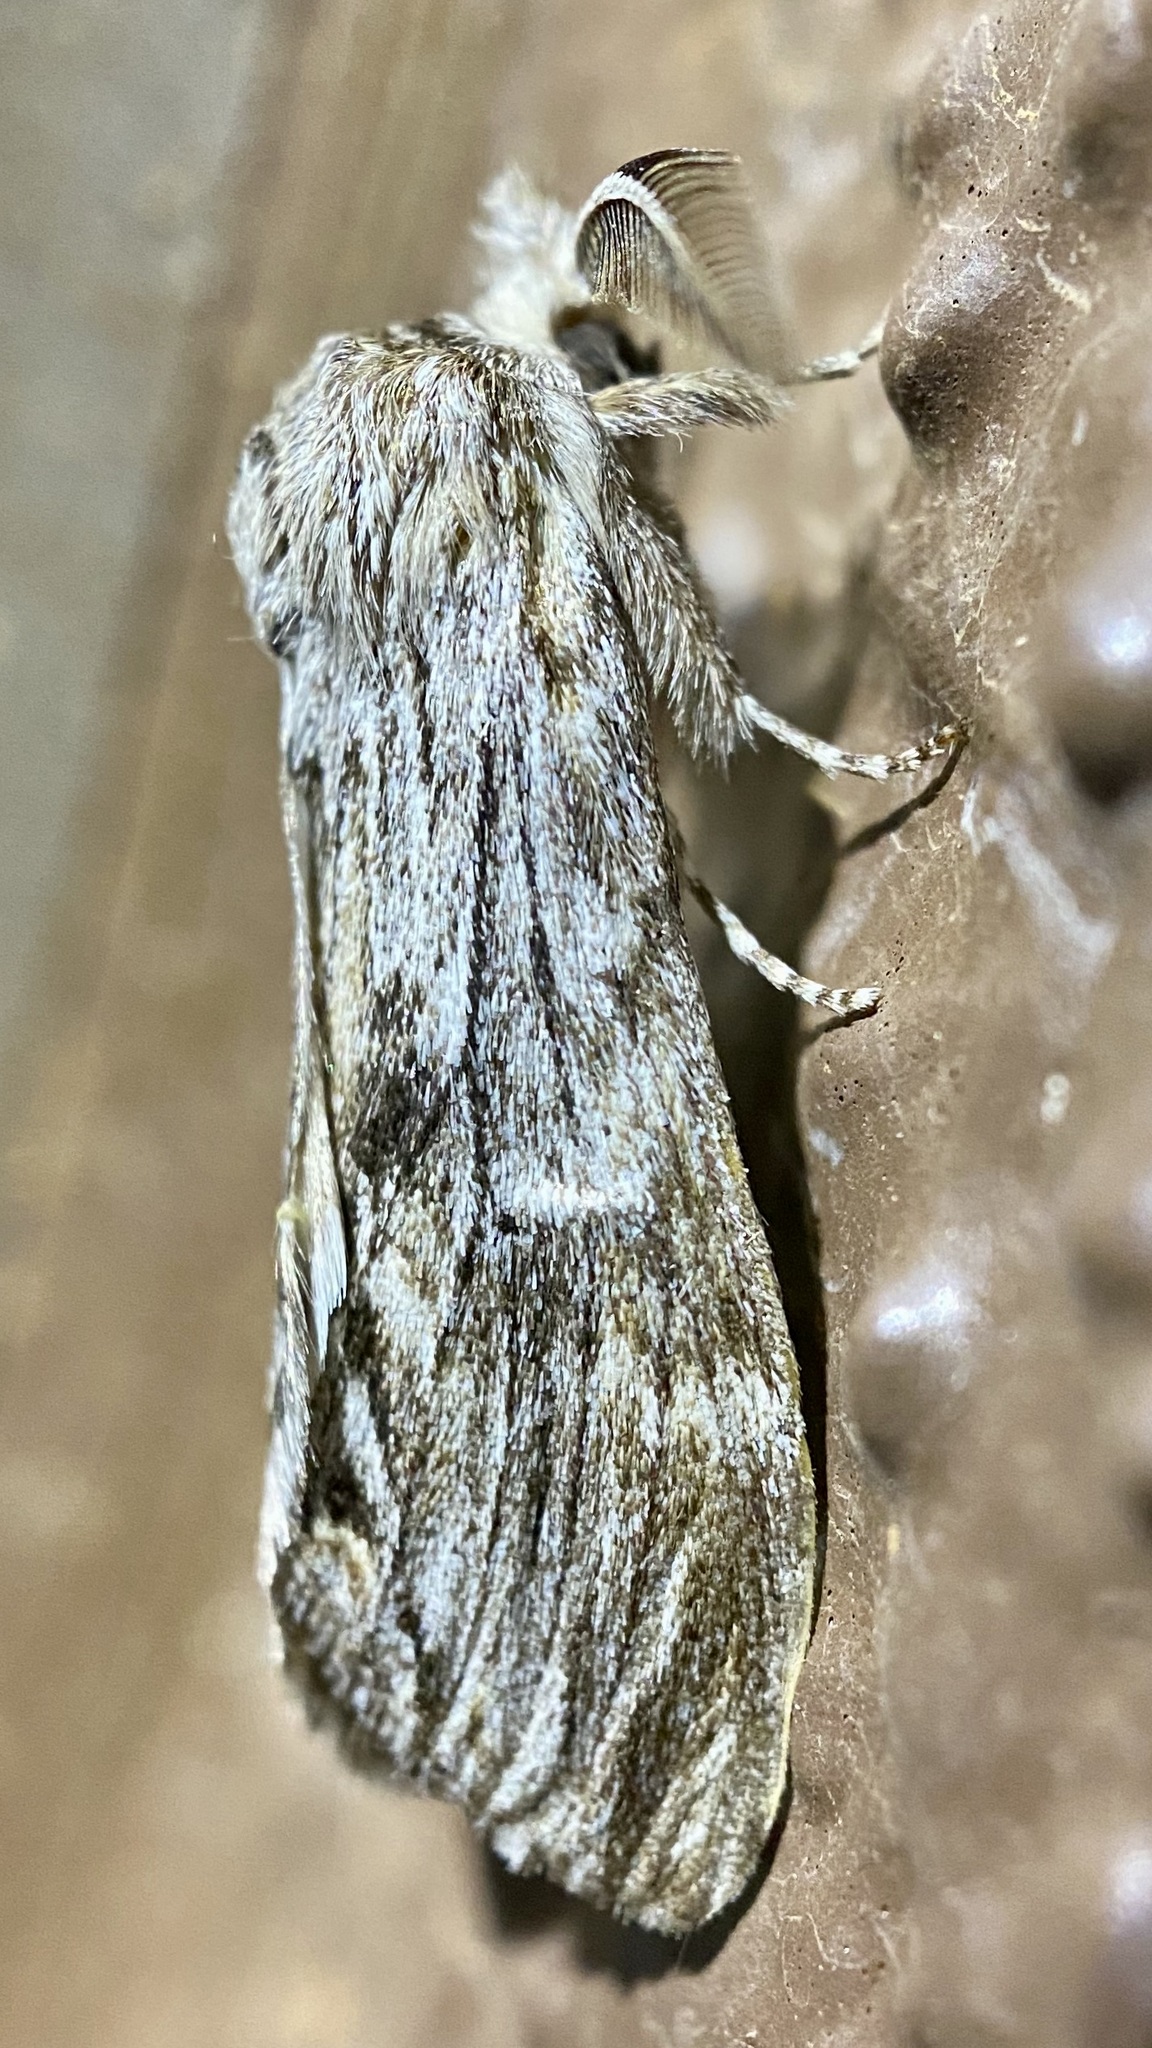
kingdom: Animalia
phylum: Arthropoda
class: Insecta
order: Lepidoptera
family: Notodontidae
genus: Notela
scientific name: Notela jaliscana
